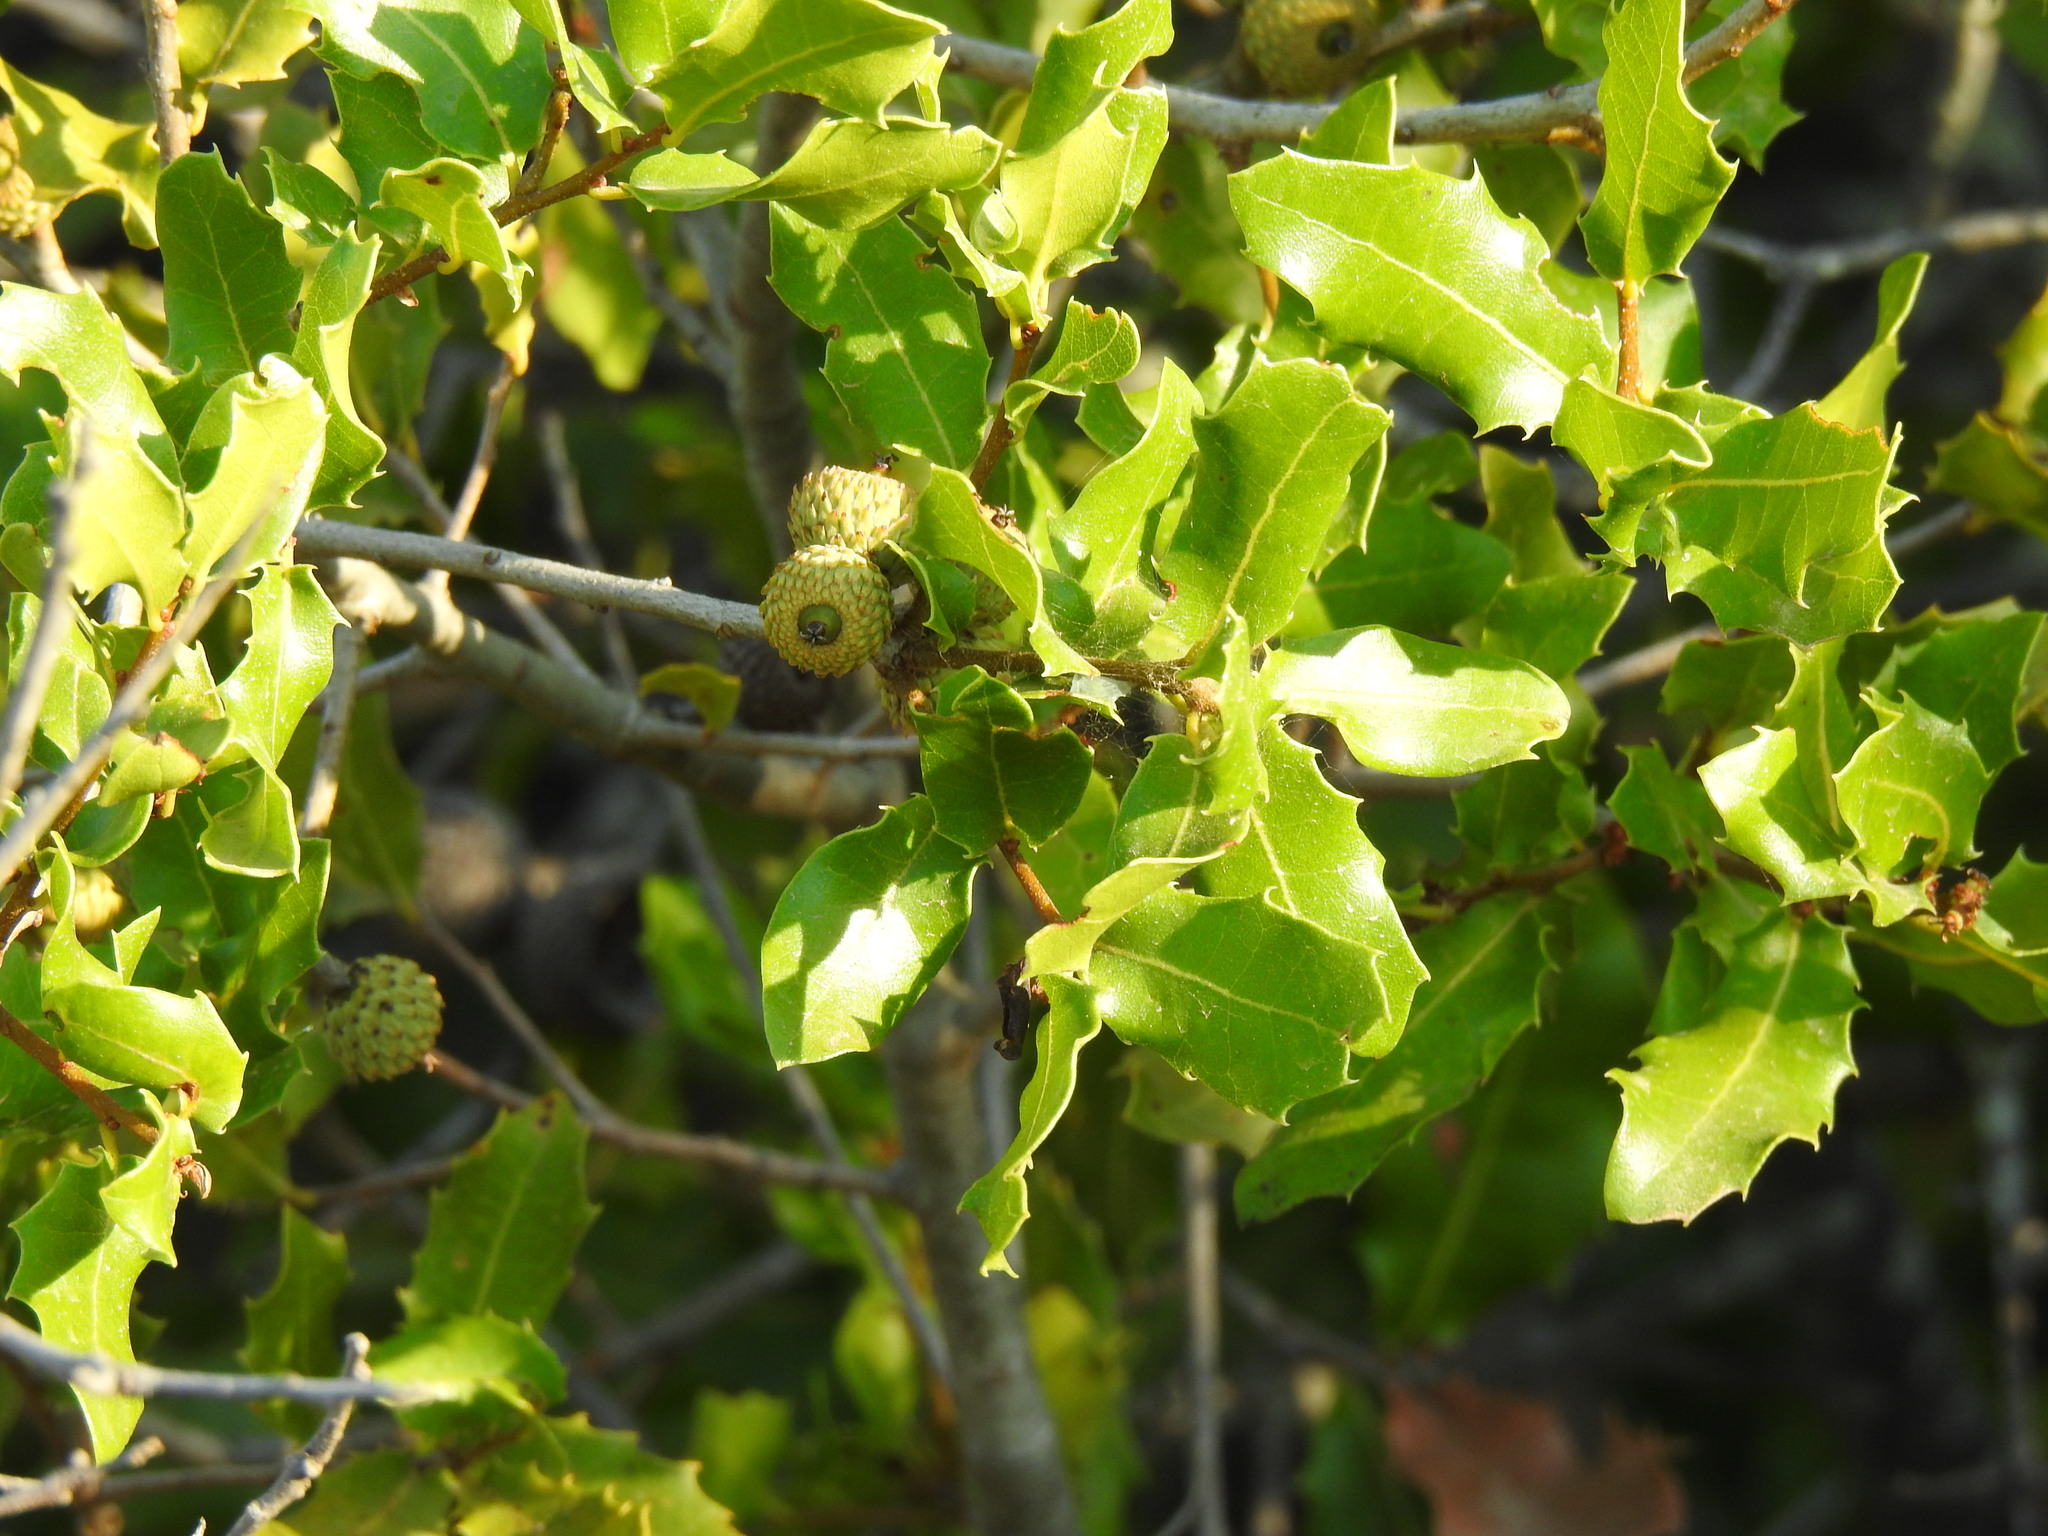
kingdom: Plantae
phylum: Tracheophyta
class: Magnoliopsida
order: Fagales
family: Fagaceae
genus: Quercus
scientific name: Quercus coccifera
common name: Kermes oak
